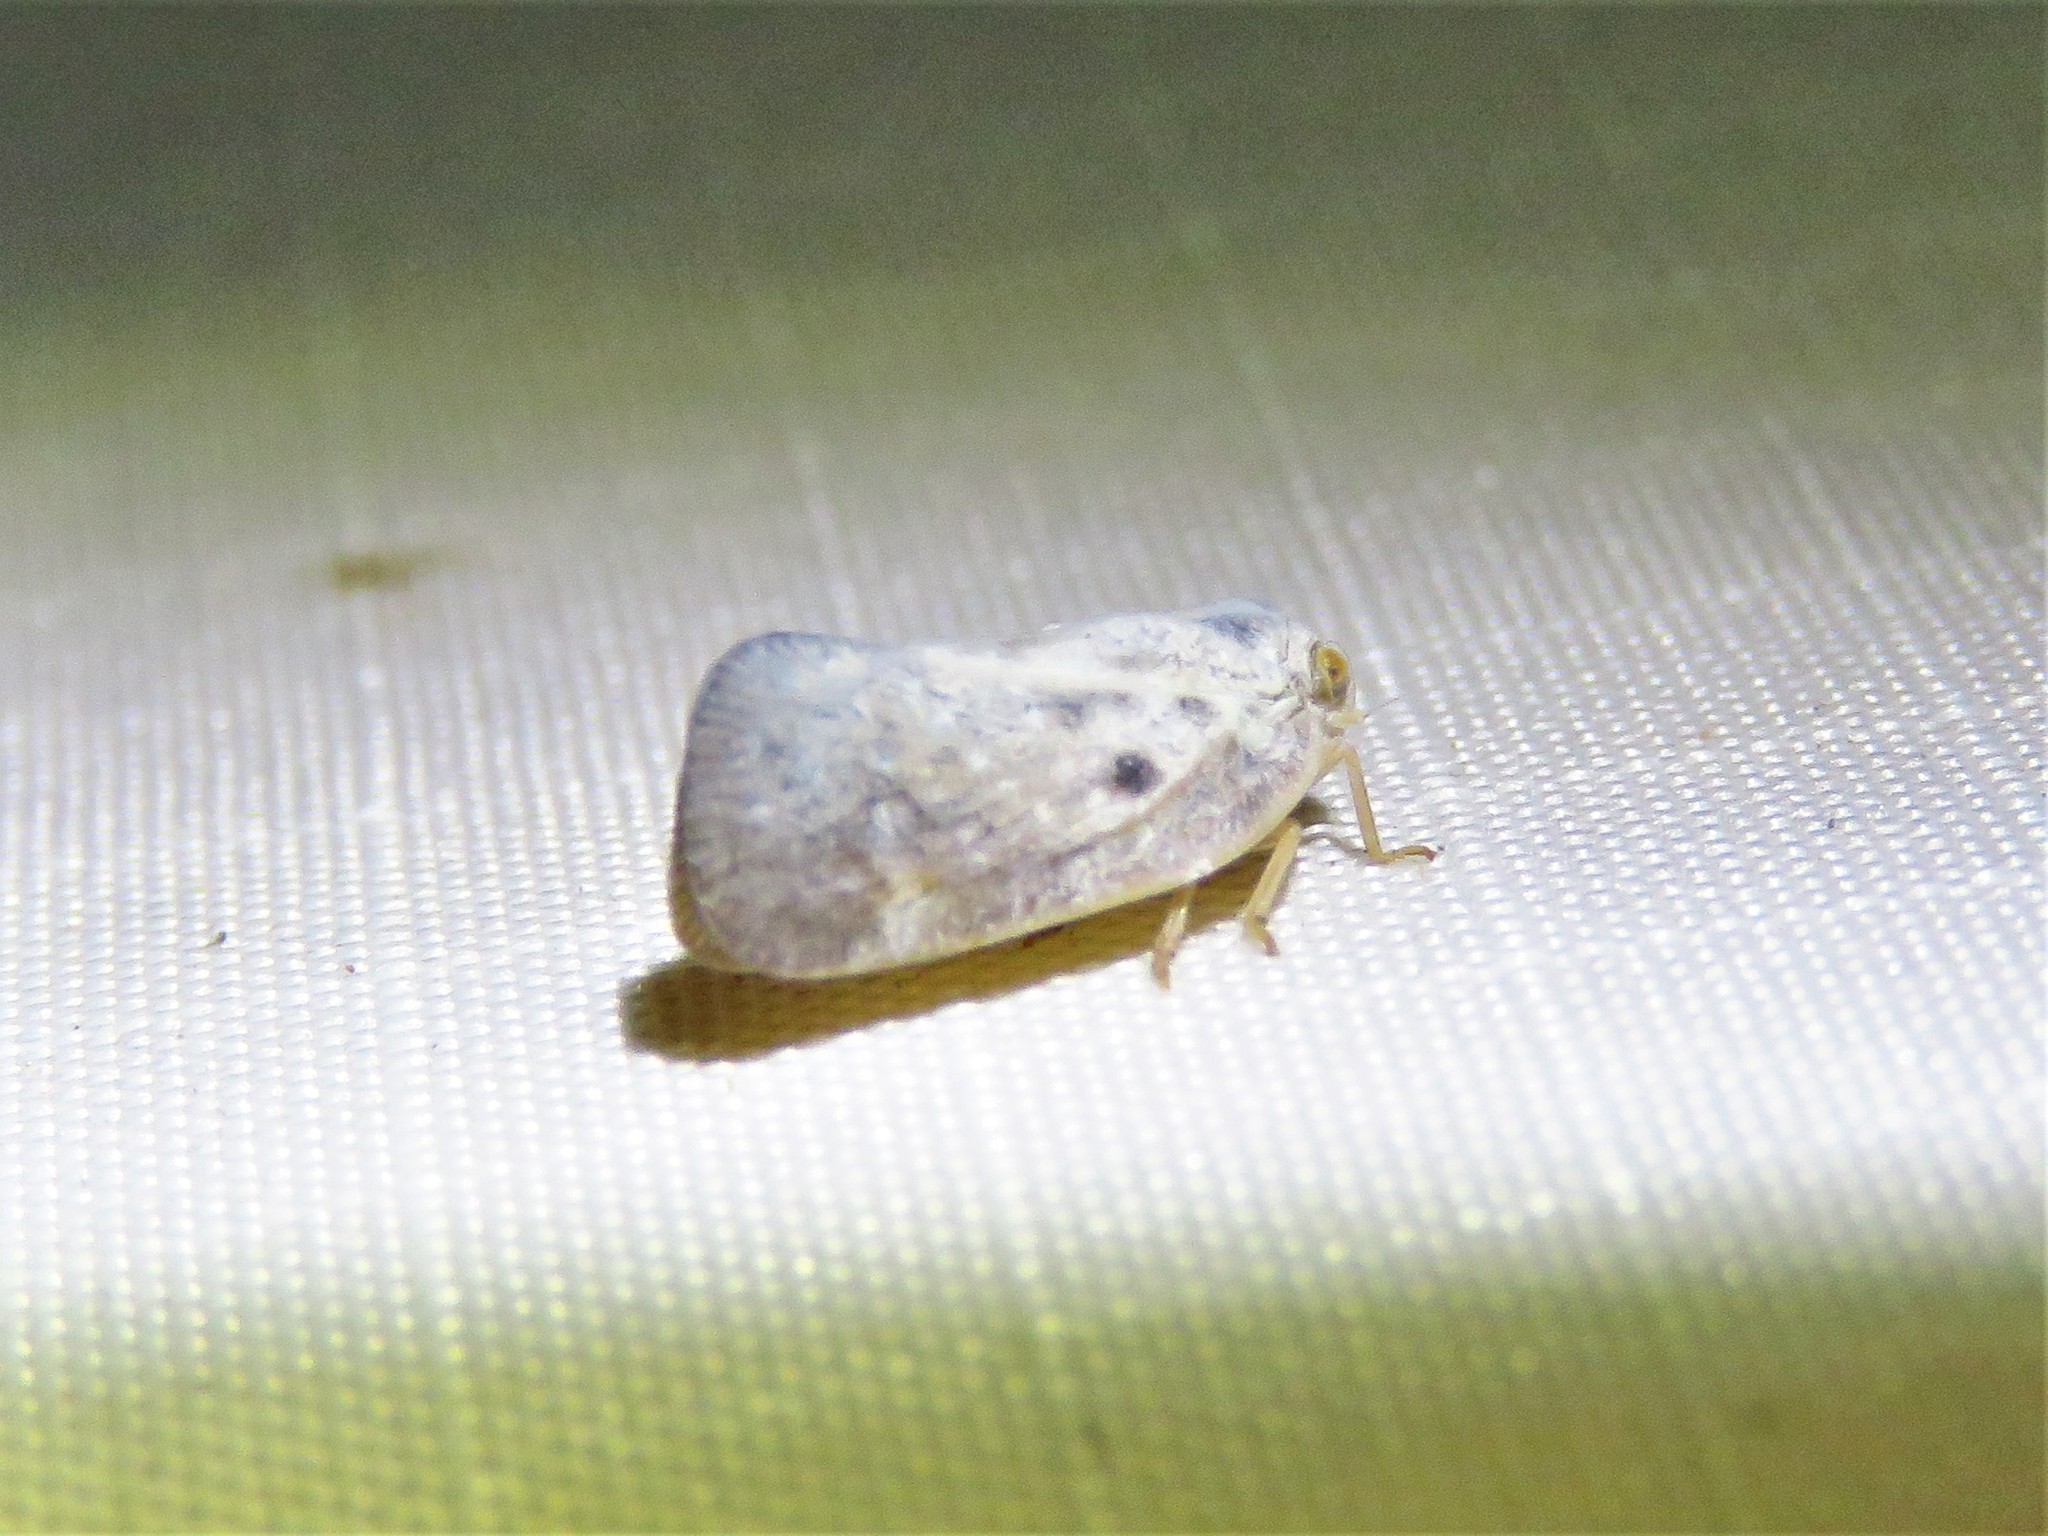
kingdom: Animalia
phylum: Arthropoda
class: Insecta
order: Hemiptera
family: Flatidae
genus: Metcalfa
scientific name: Metcalfa pruinosa
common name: Citrus flatid planthopper
